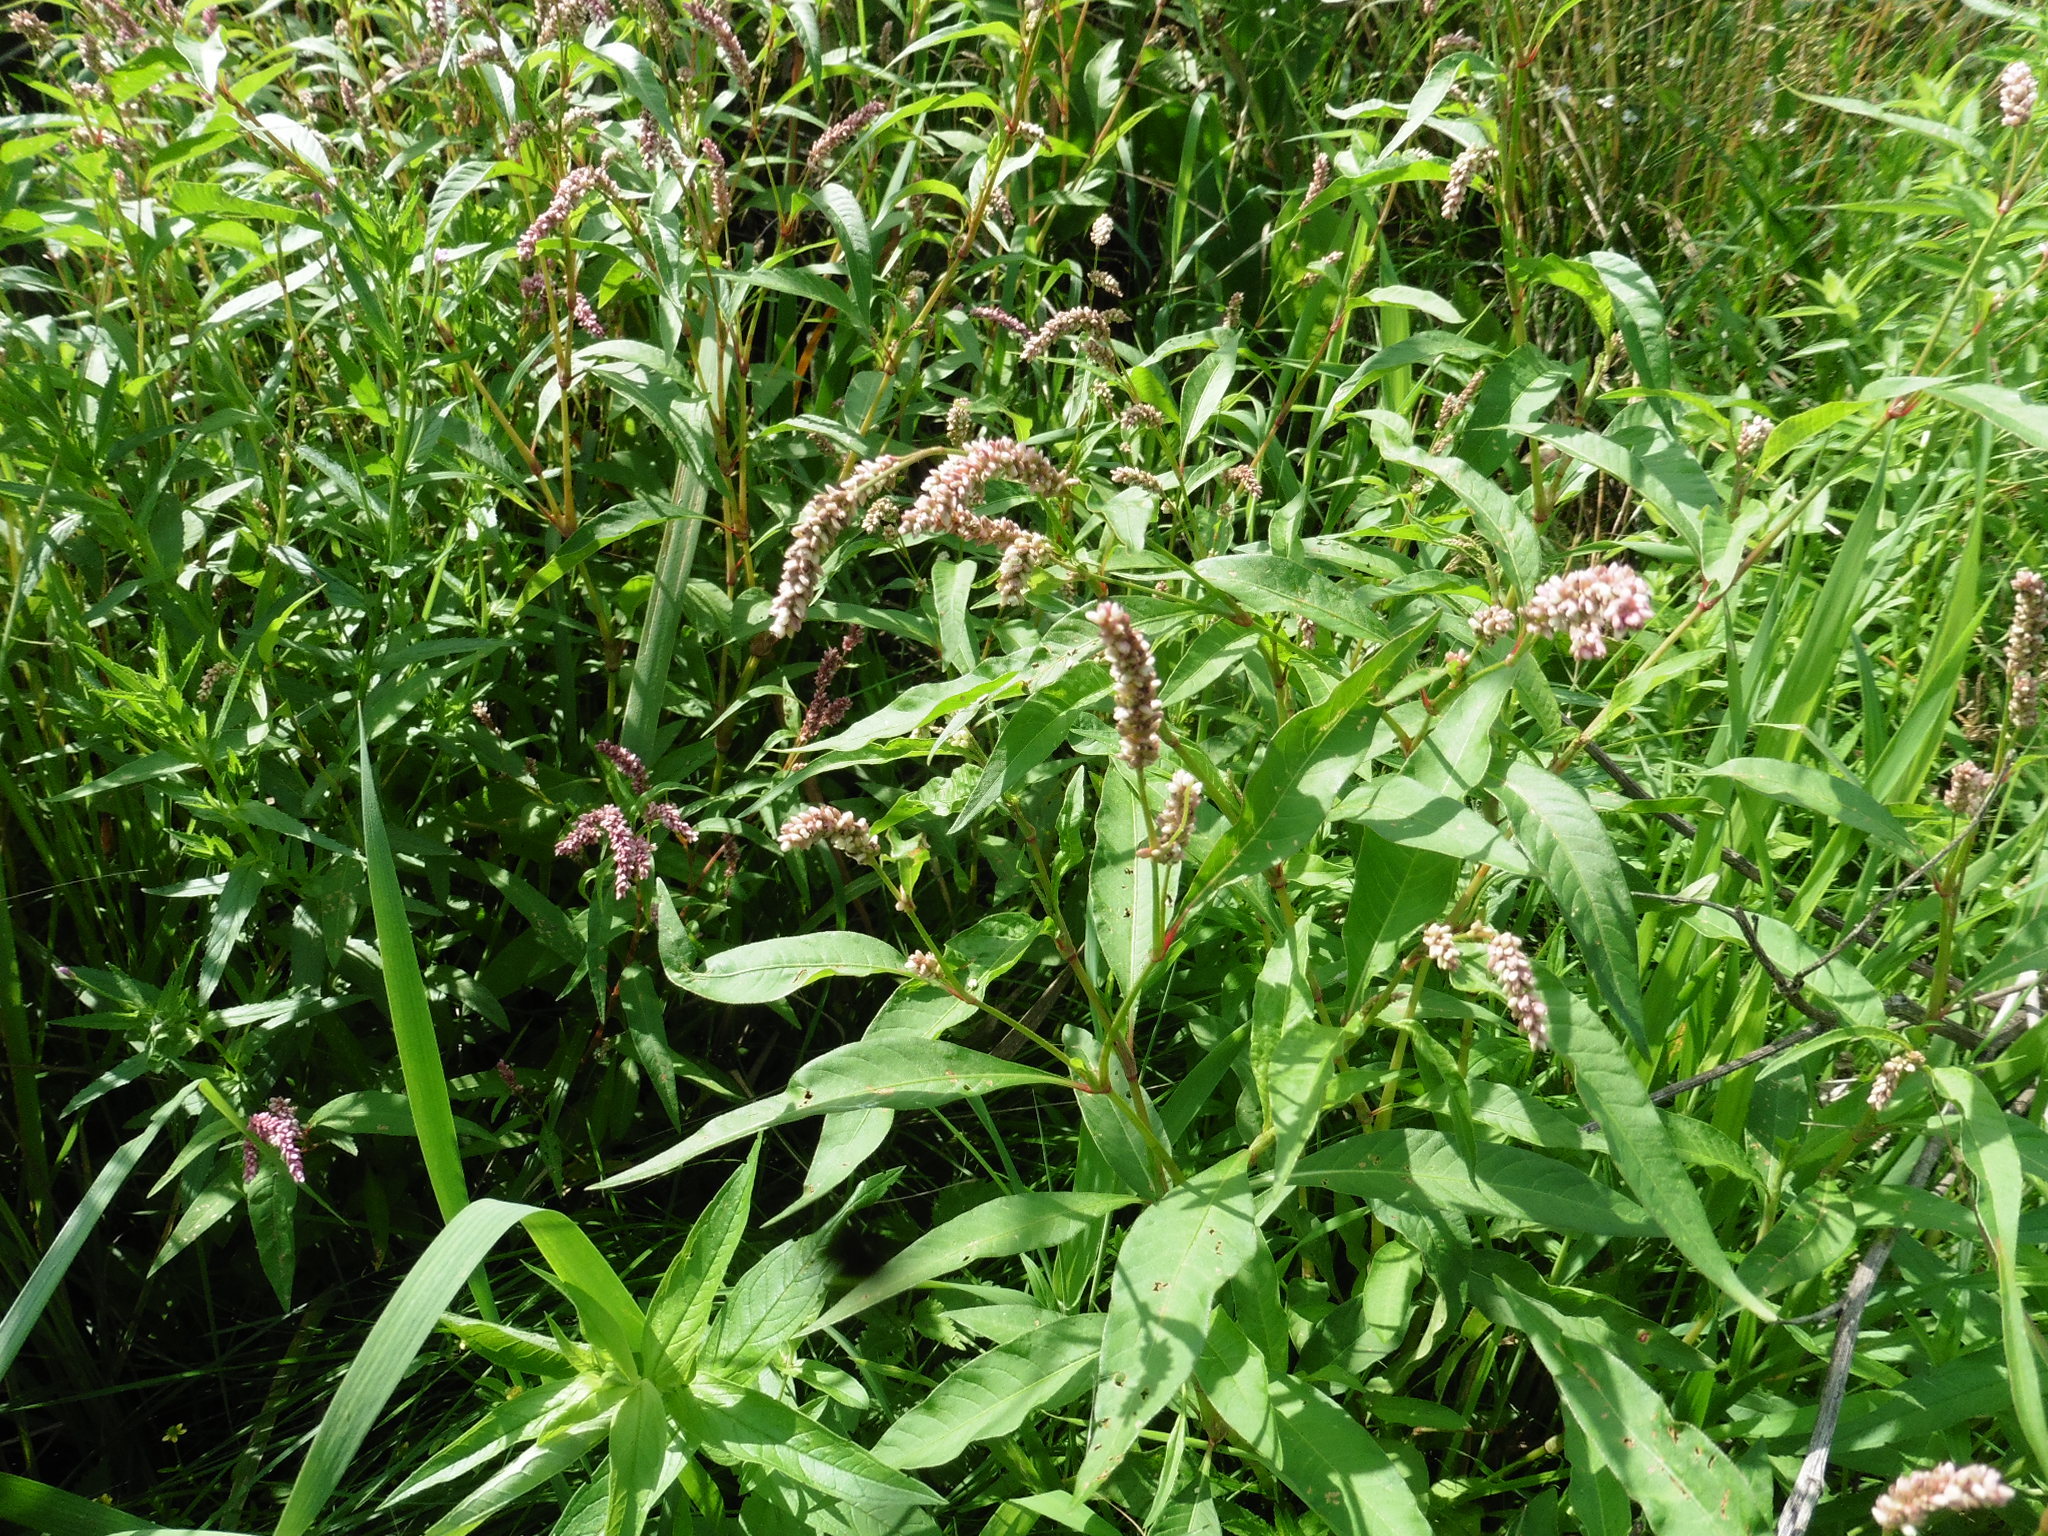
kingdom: Plantae
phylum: Tracheophyta
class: Magnoliopsida
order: Caryophyllales
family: Polygonaceae
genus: Persicaria
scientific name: Persicaria lapathifolia
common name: Curlytop knotweed
